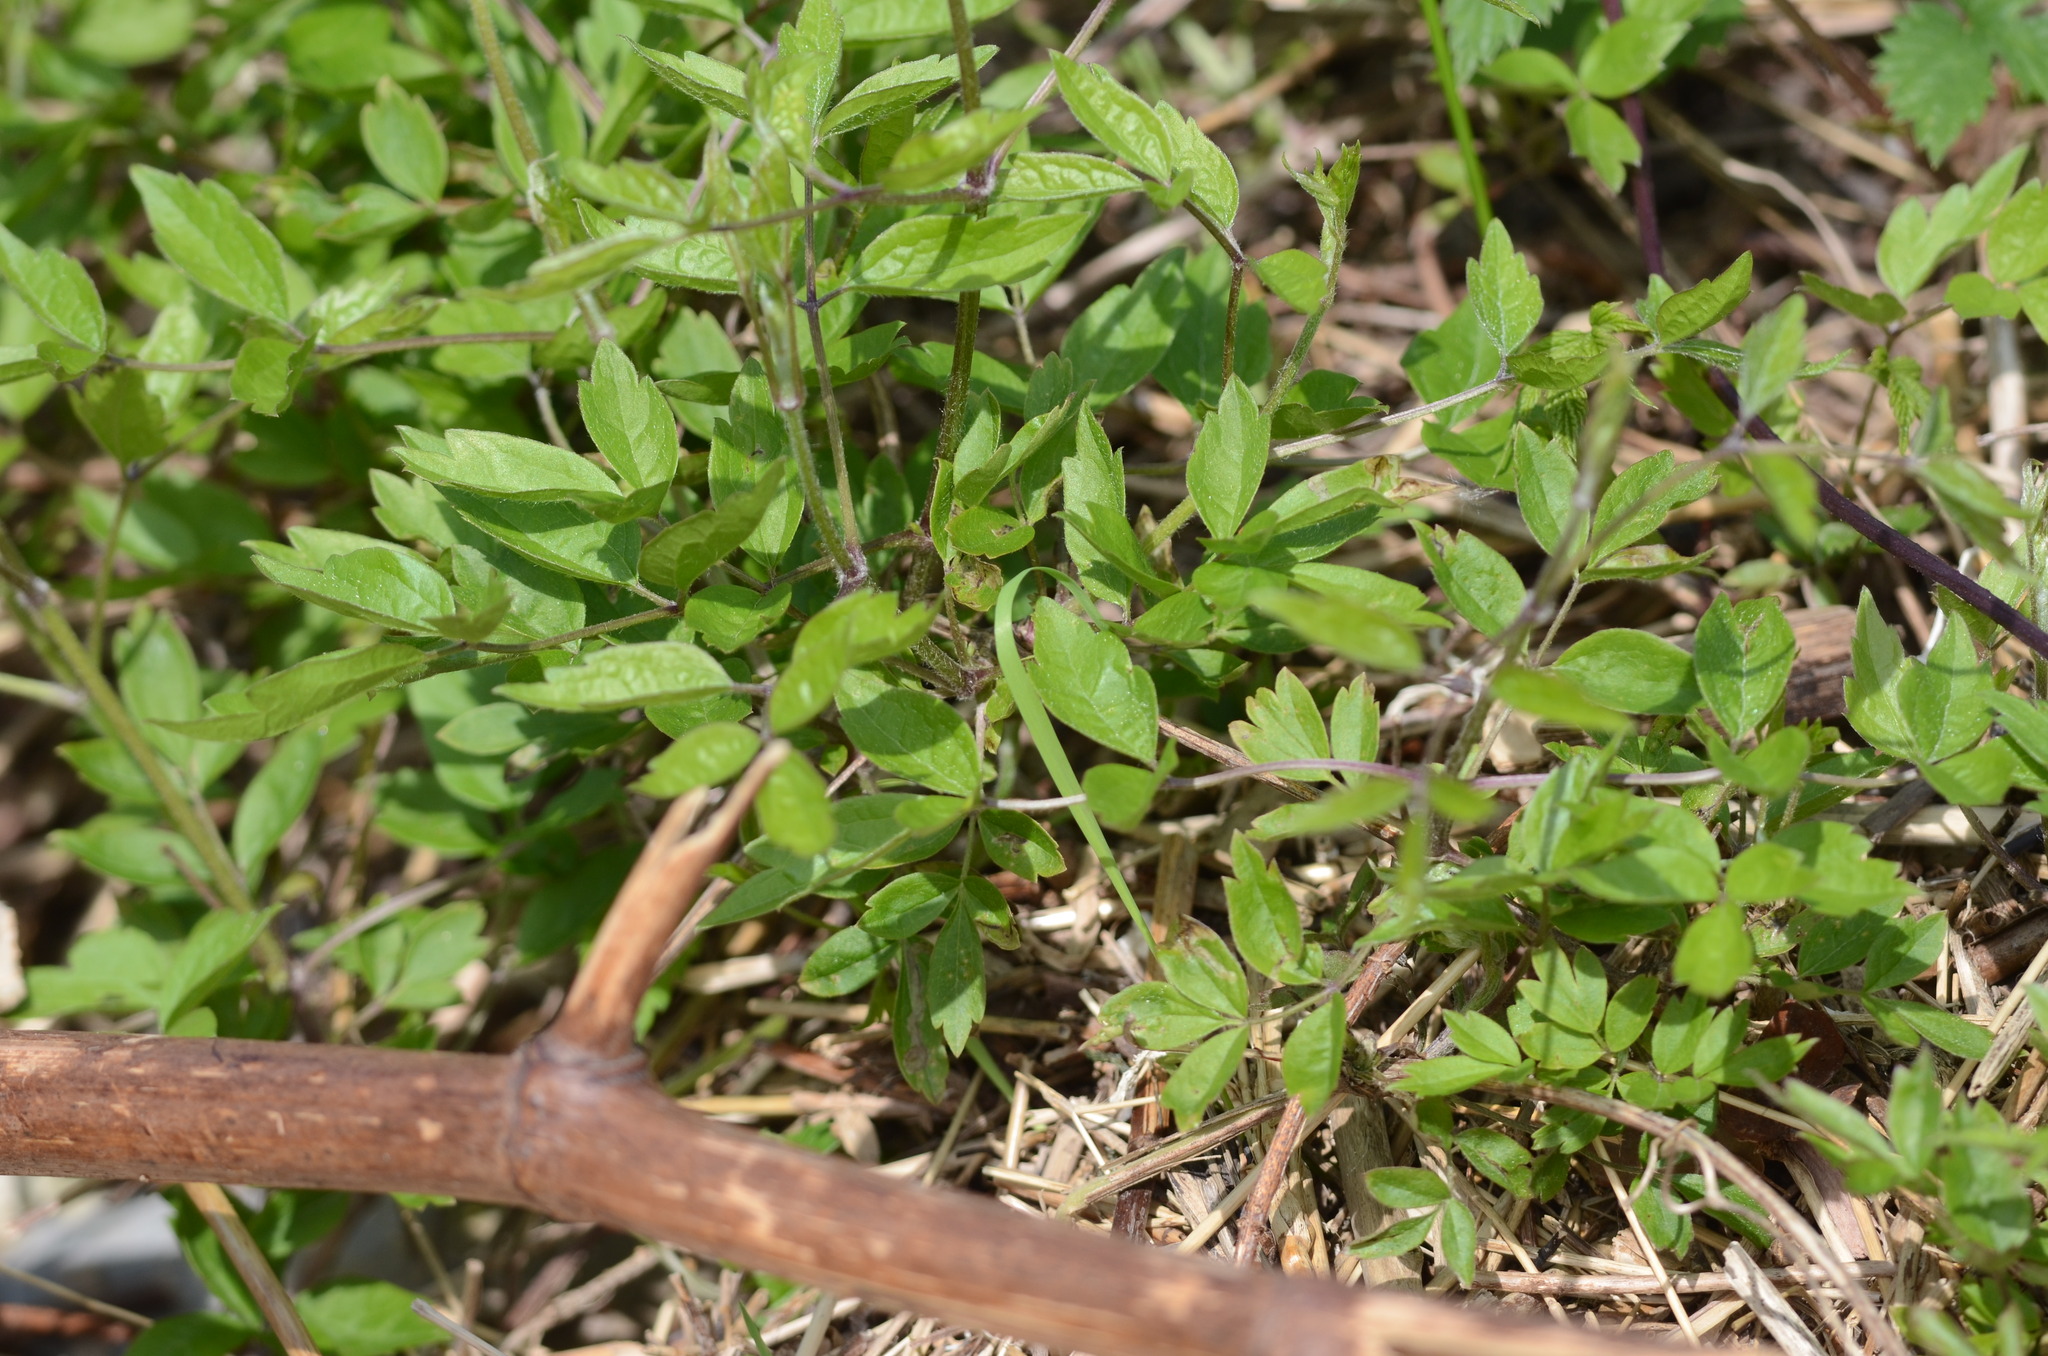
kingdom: Plantae
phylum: Tracheophyta
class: Magnoliopsida
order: Ranunculales
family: Ranunculaceae
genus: Clematis
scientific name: Clematis vitalba
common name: Evergreen clematis
